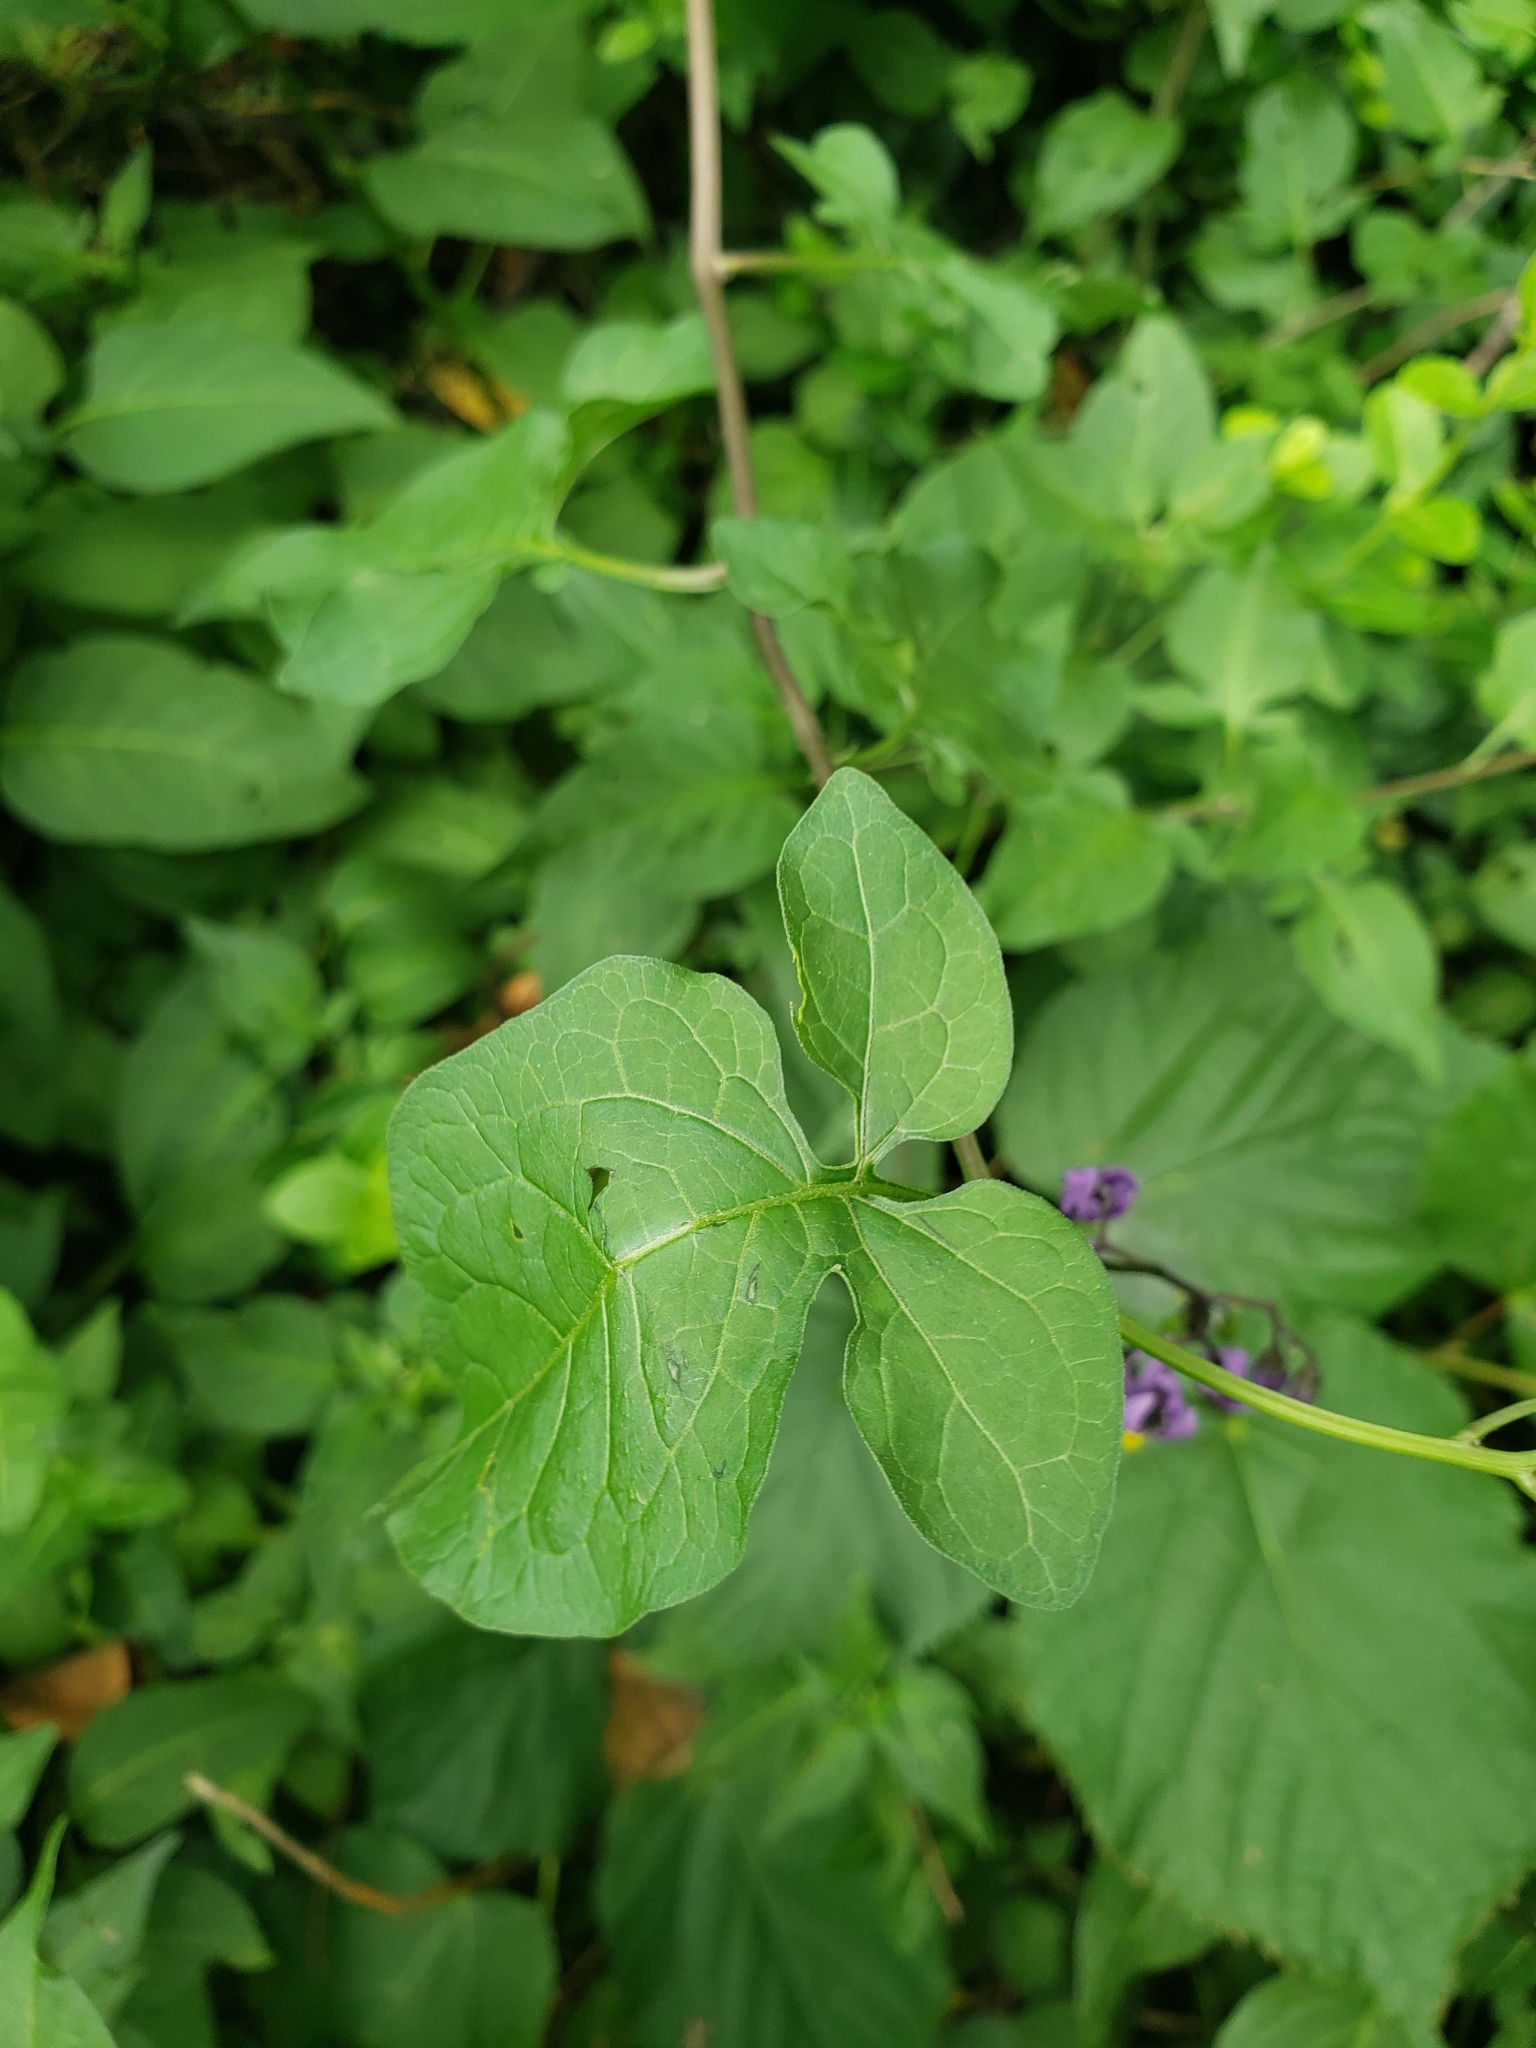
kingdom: Plantae
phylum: Tracheophyta
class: Magnoliopsida
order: Solanales
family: Solanaceae
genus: Solanum
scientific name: Solanum dulcamara
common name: Climbing nightshade
